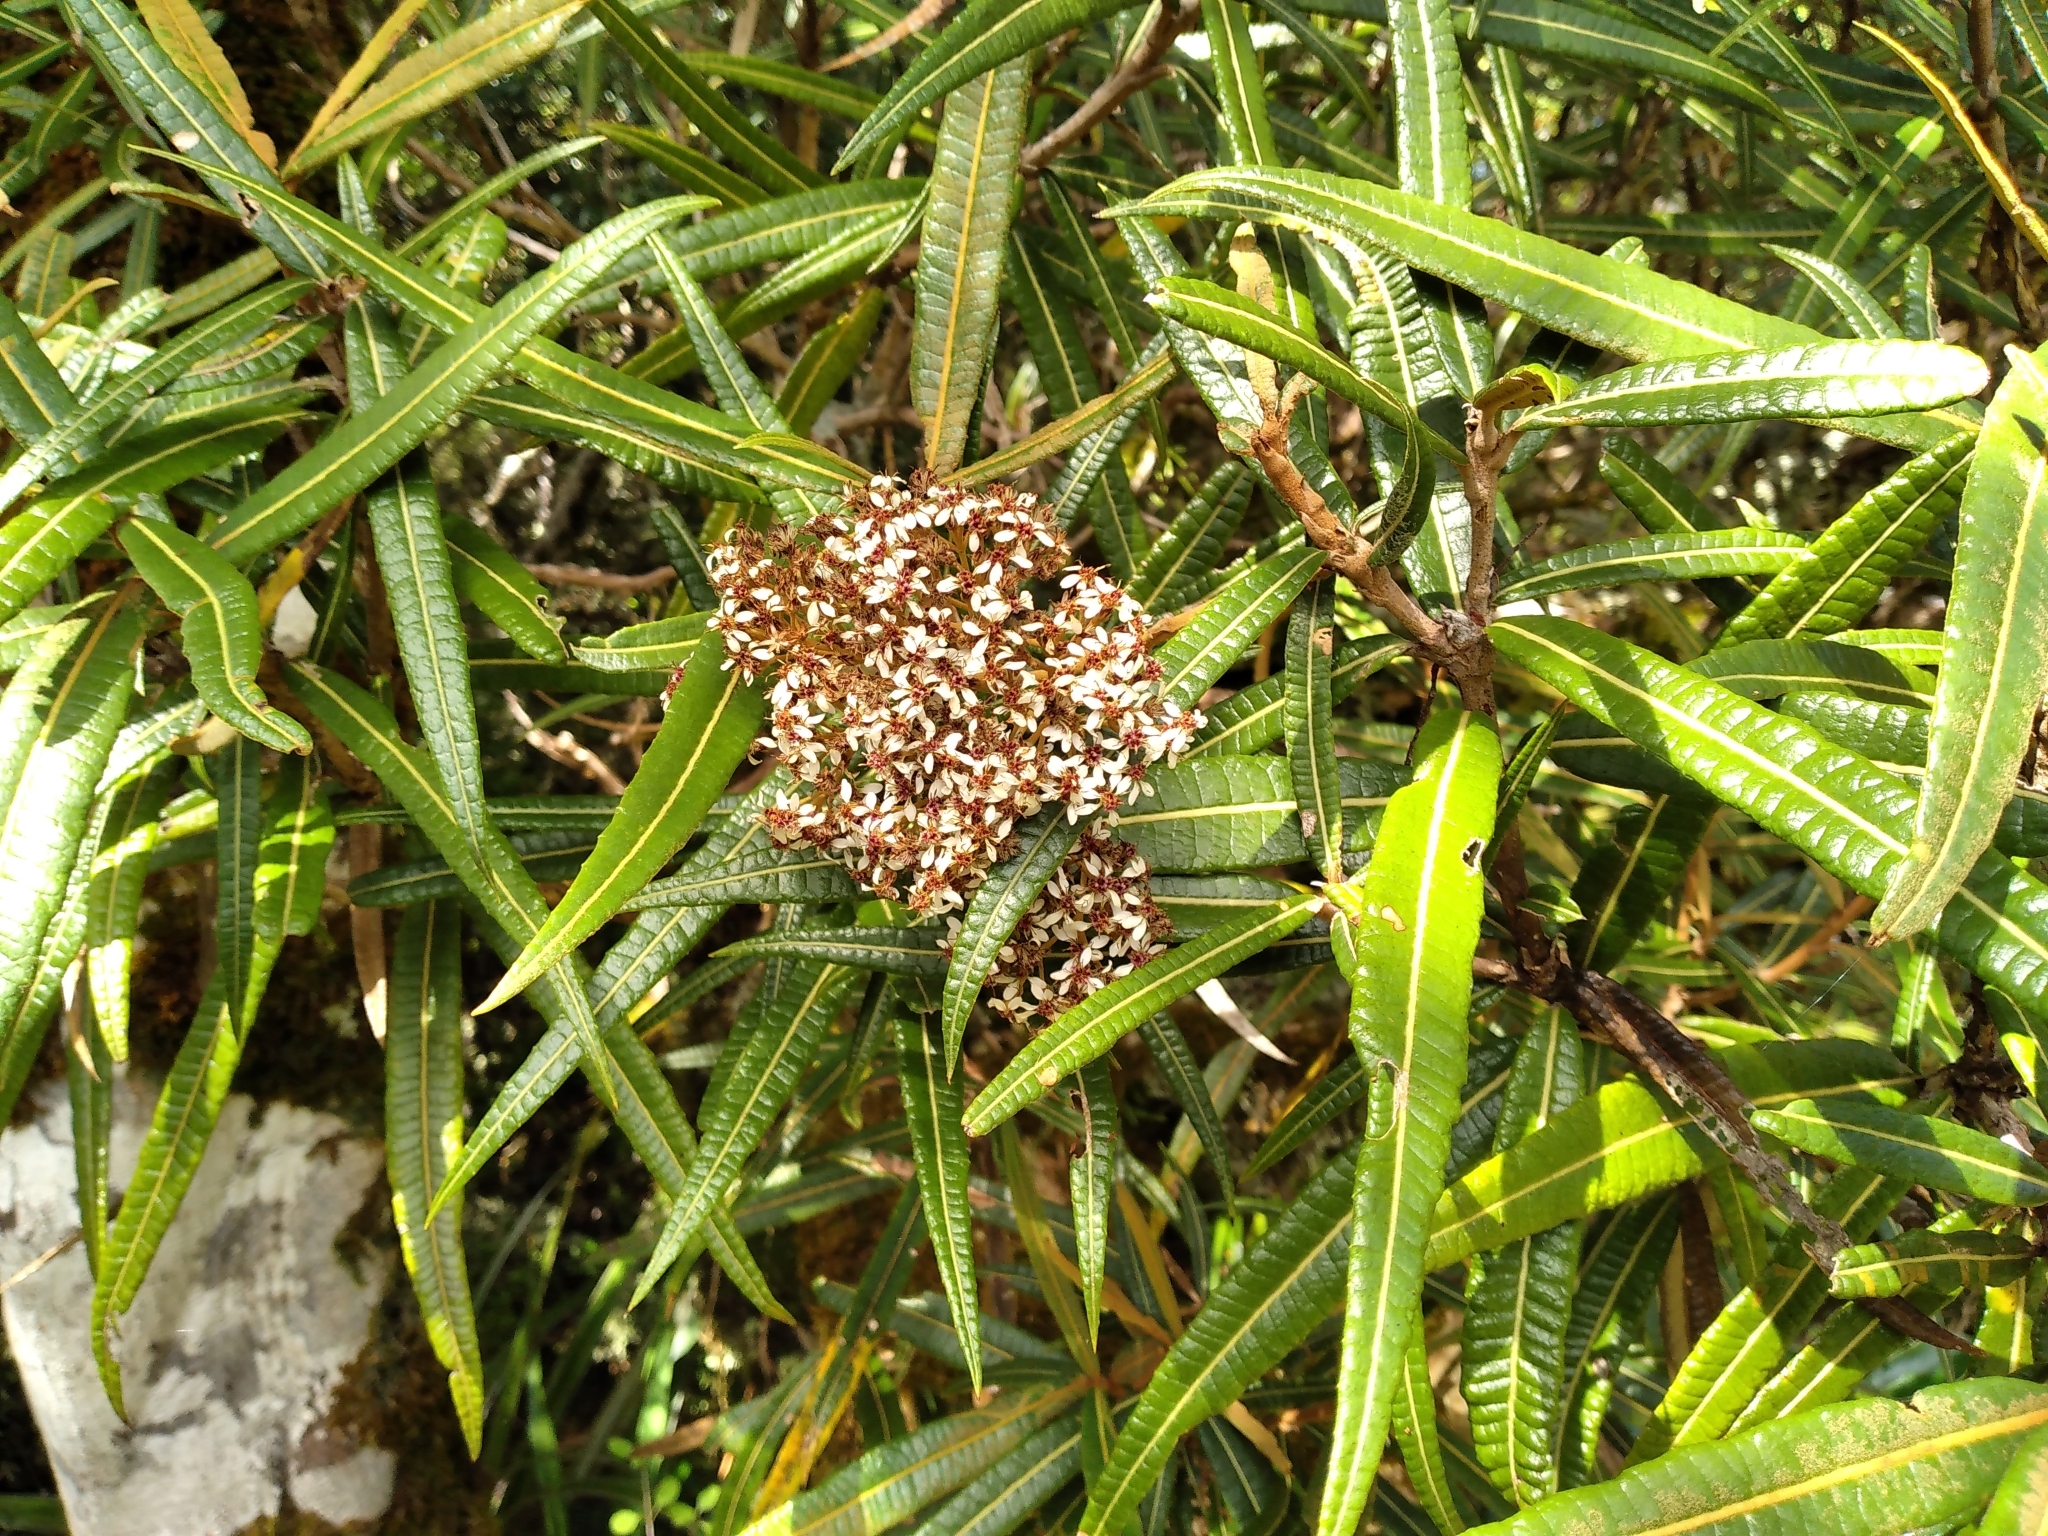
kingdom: Plantae
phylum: Tracheophyta
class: Magnoliopsida
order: Asterales
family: Asteraceae
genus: Olearia
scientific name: Olearia lacunosa
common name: Lancewood tree daisy
